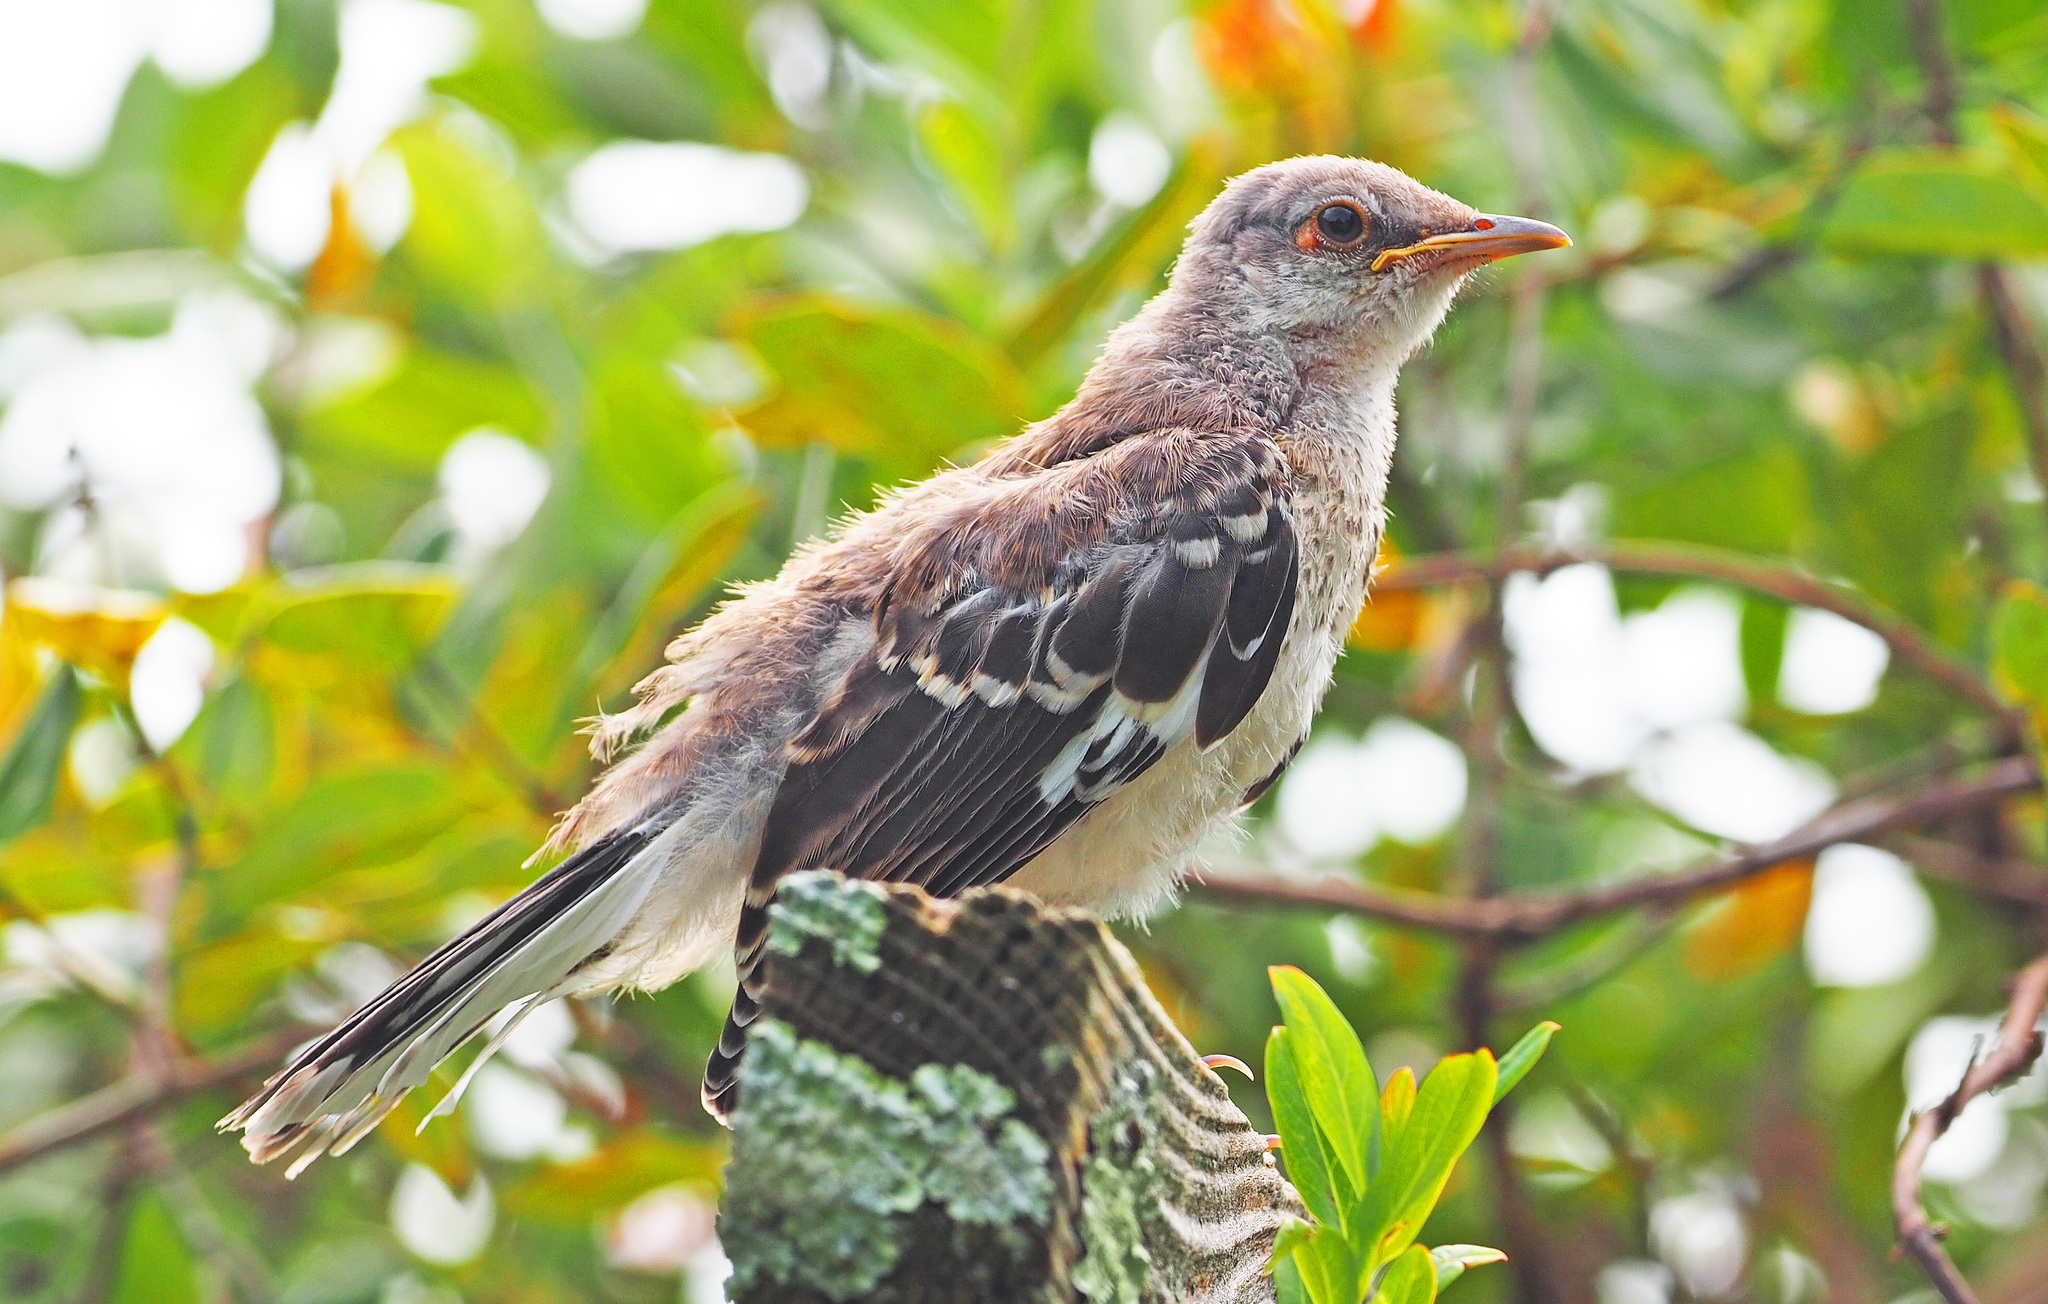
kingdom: Animalia
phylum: Chordata
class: Aves
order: Passeriformes
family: Mimidae
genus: Mimus
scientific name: Mimus polyglottos
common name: Northern mockingbird
